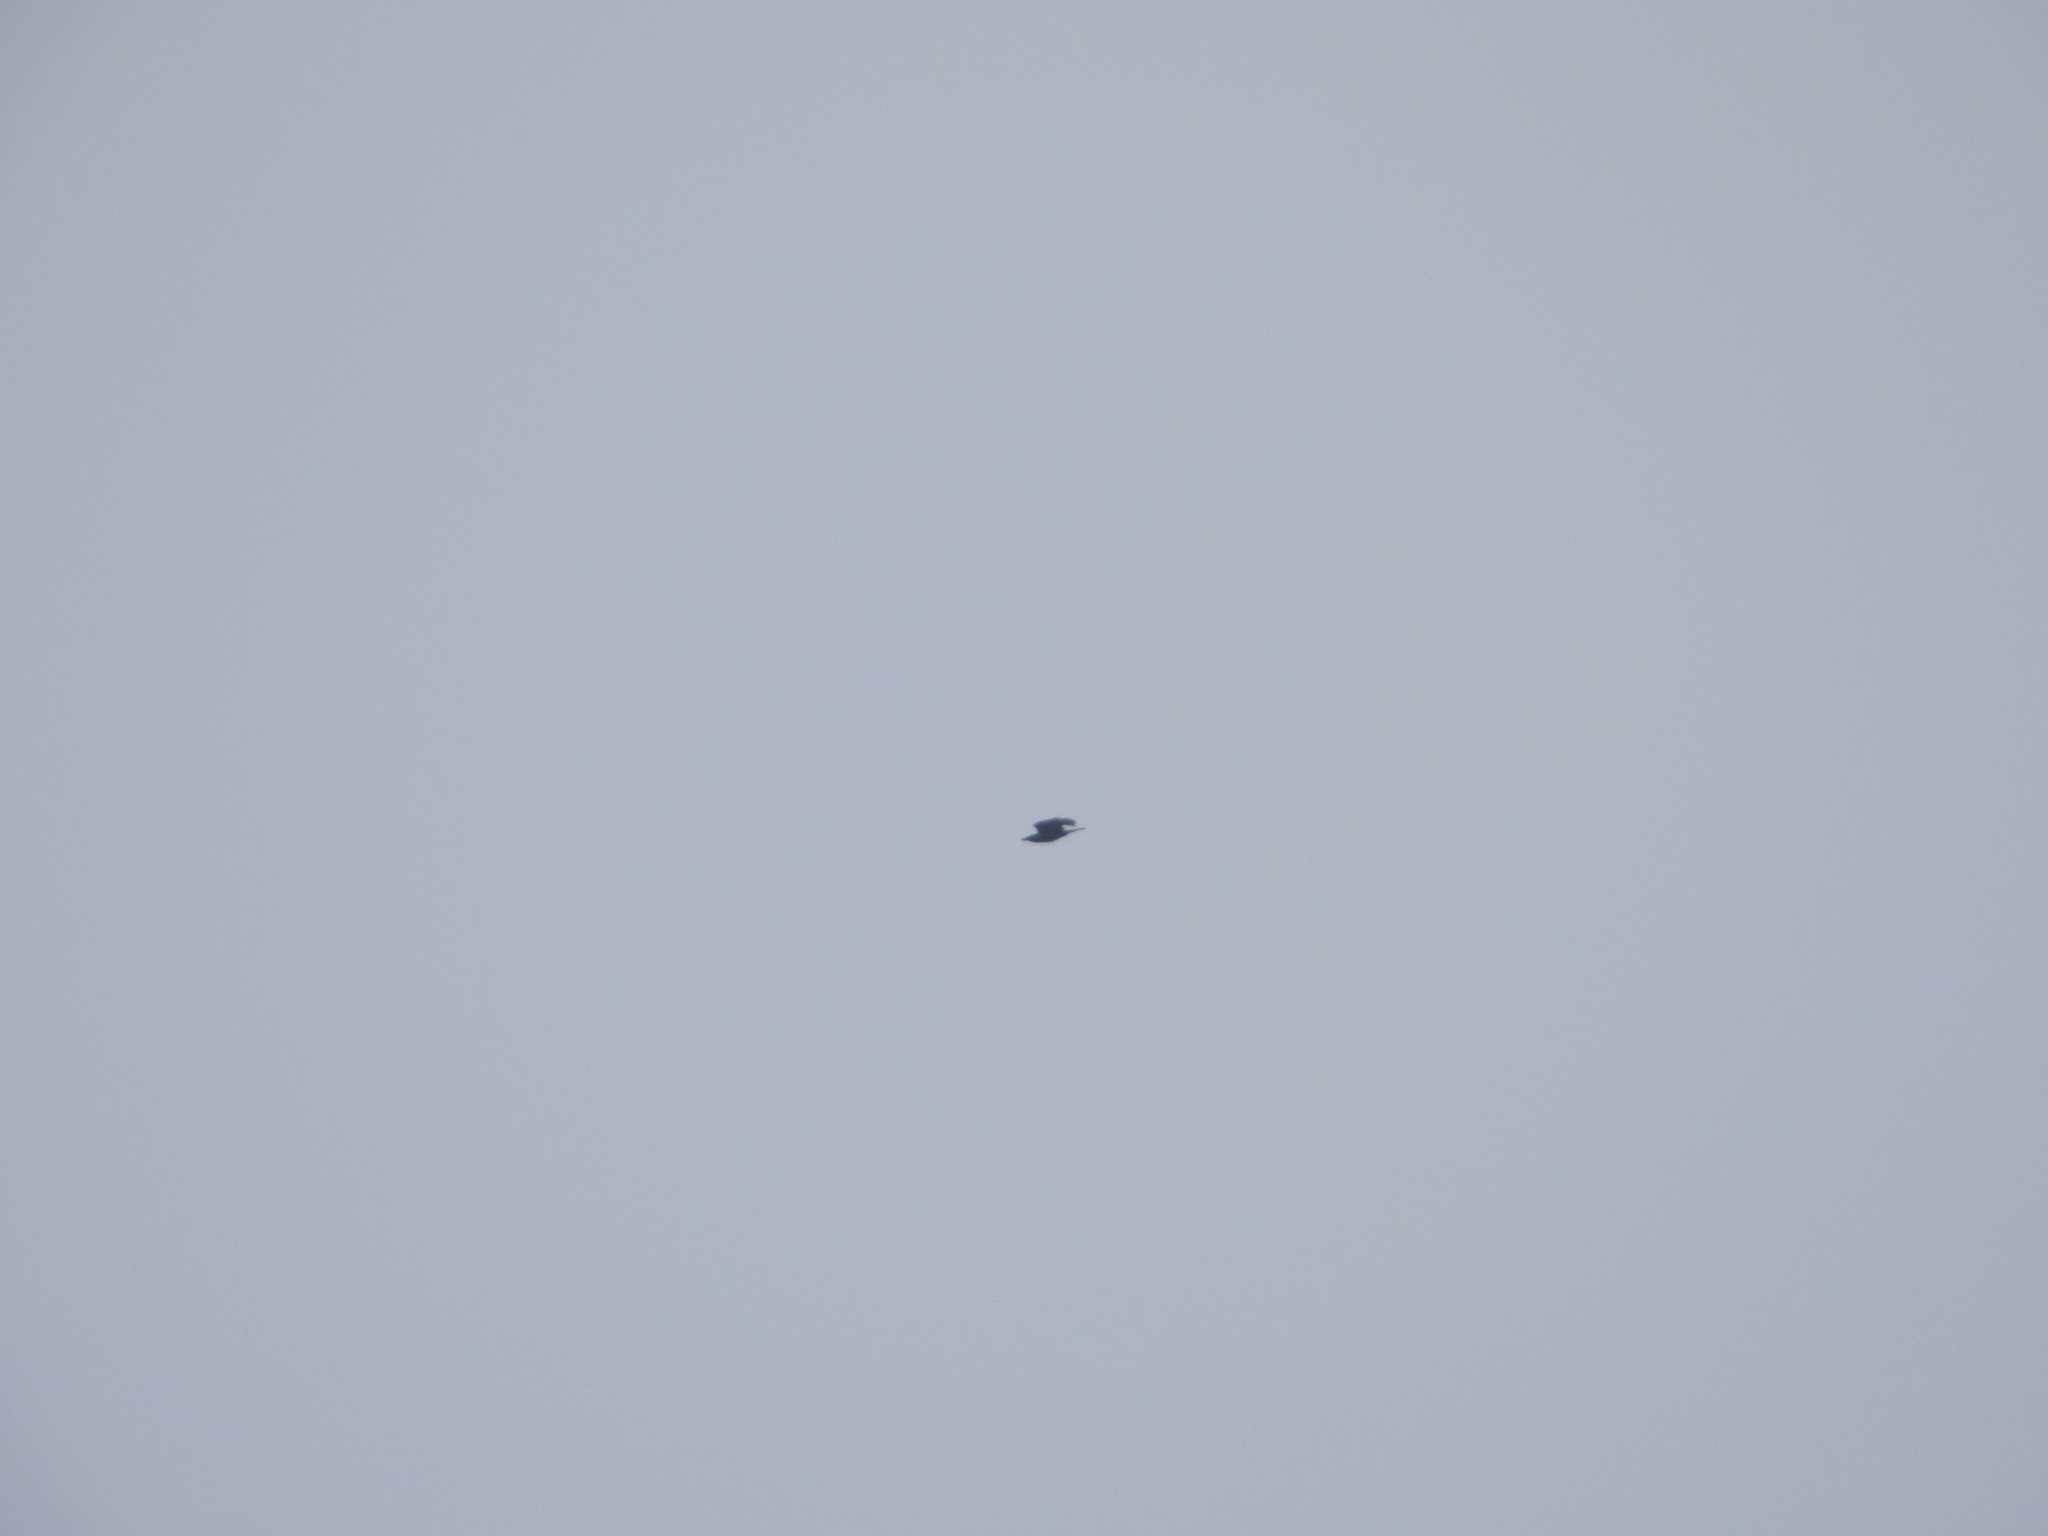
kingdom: Animalia
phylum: Chordata
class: Aves
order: Passeriformes
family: Corvidae
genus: Corvus
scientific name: Corvus corax
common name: Common raven
